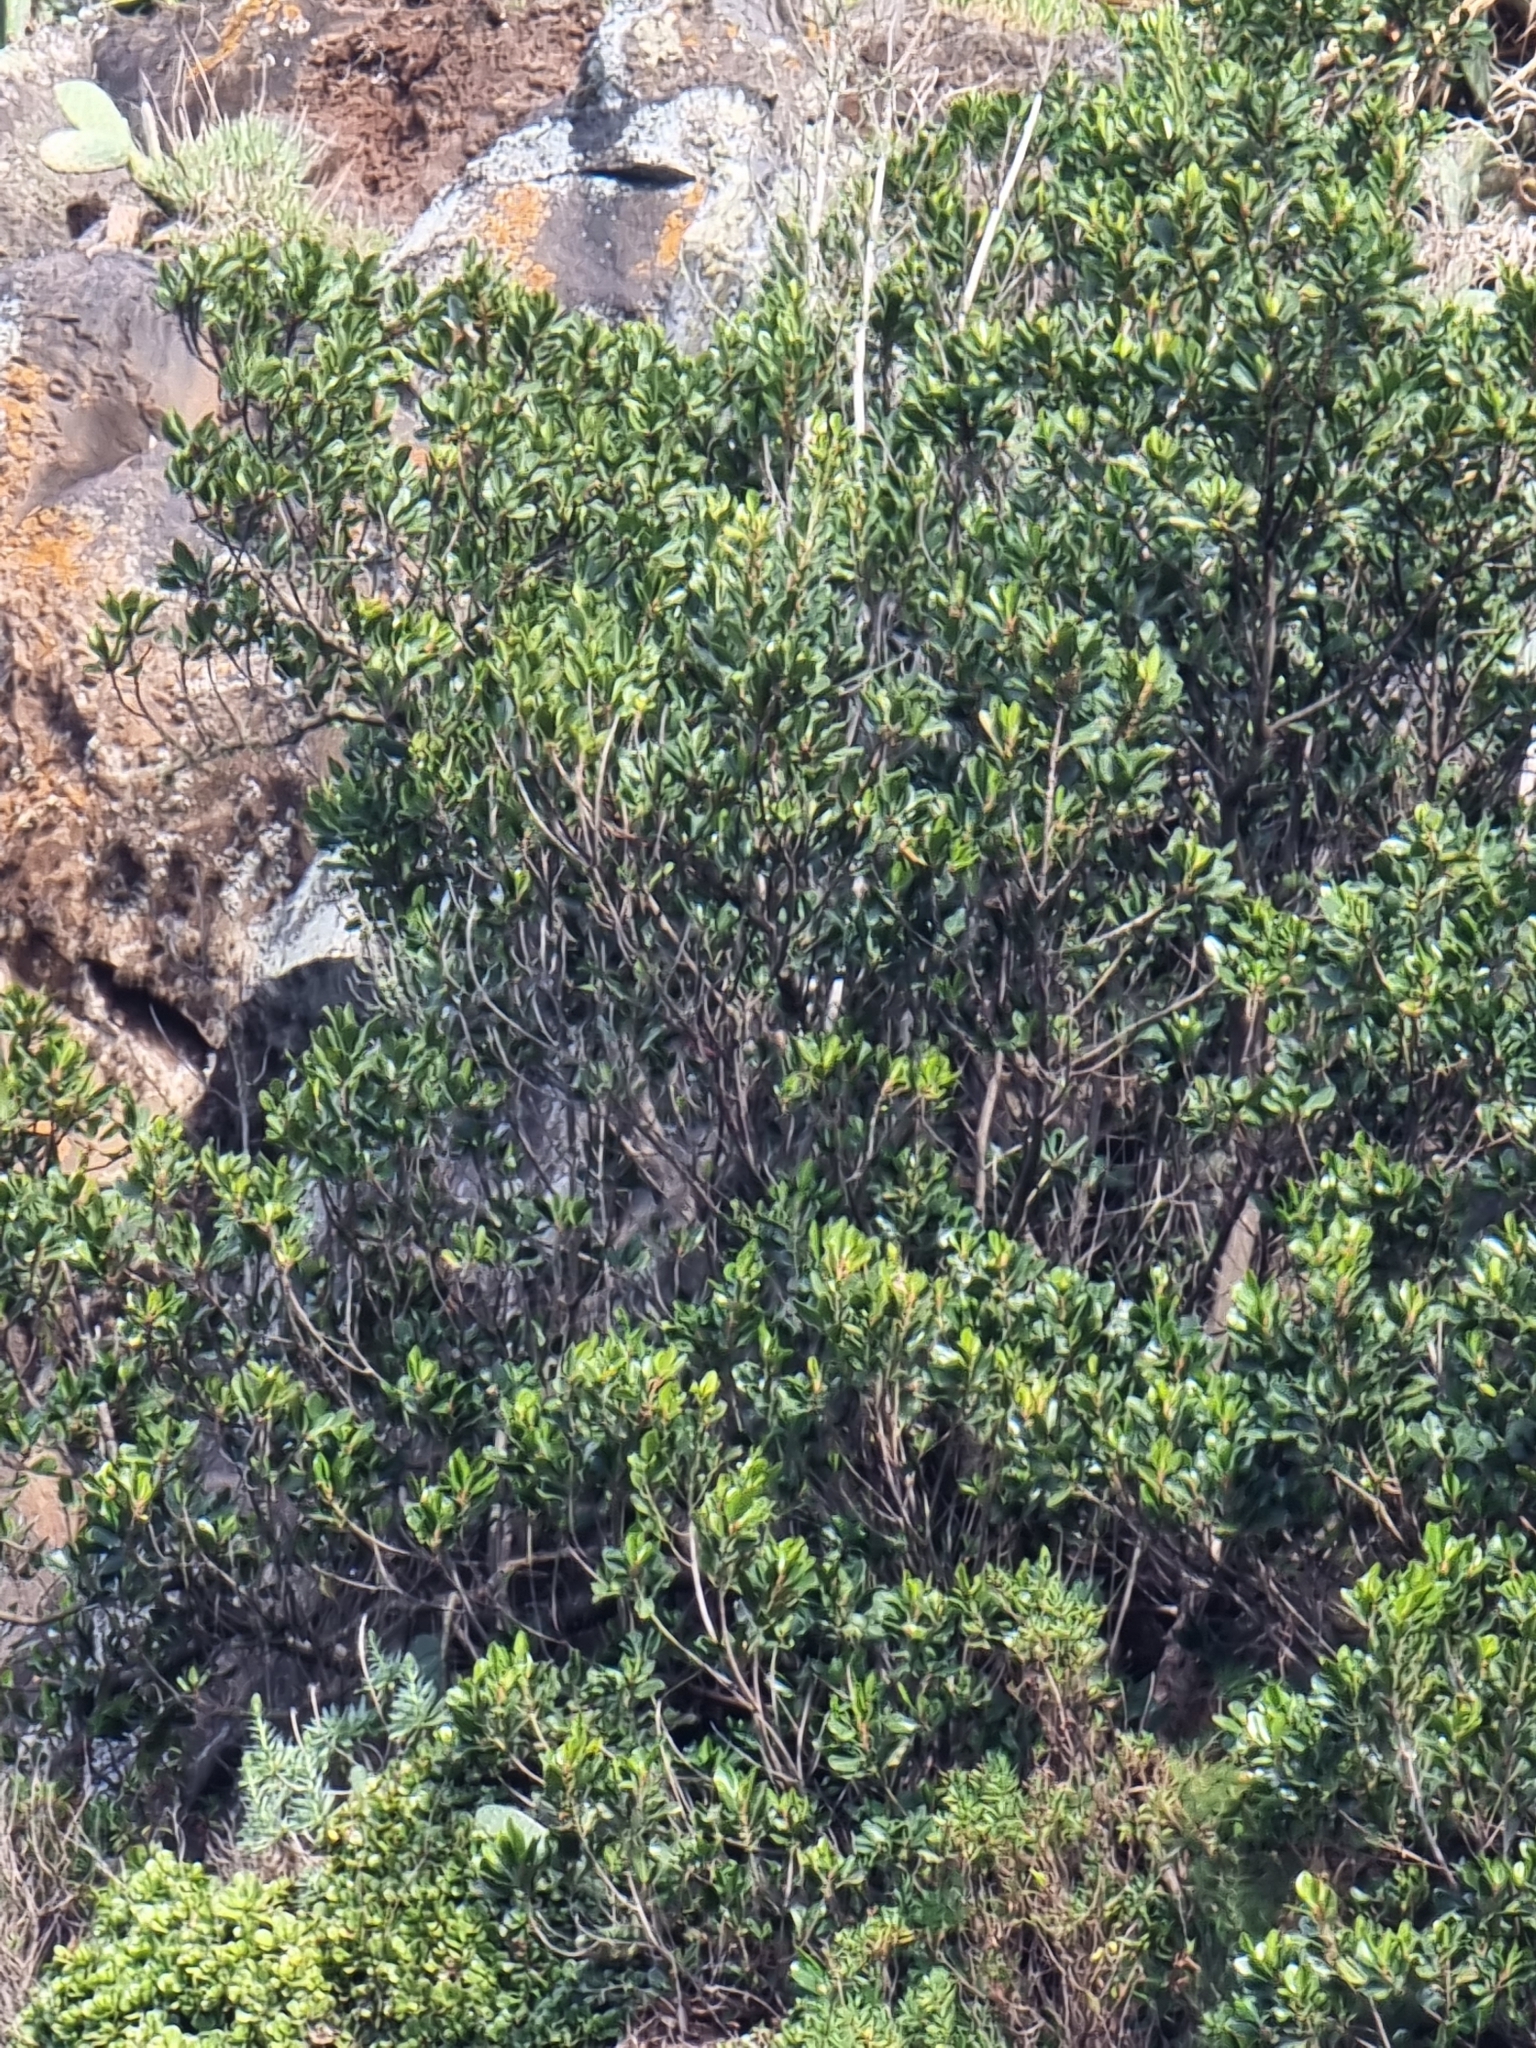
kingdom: Plantae
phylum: Tracheophyta
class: Magnoliopsida
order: Ericales
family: Sapotaceae
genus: Sideroxylon
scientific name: Sideroxylon mirmulans
